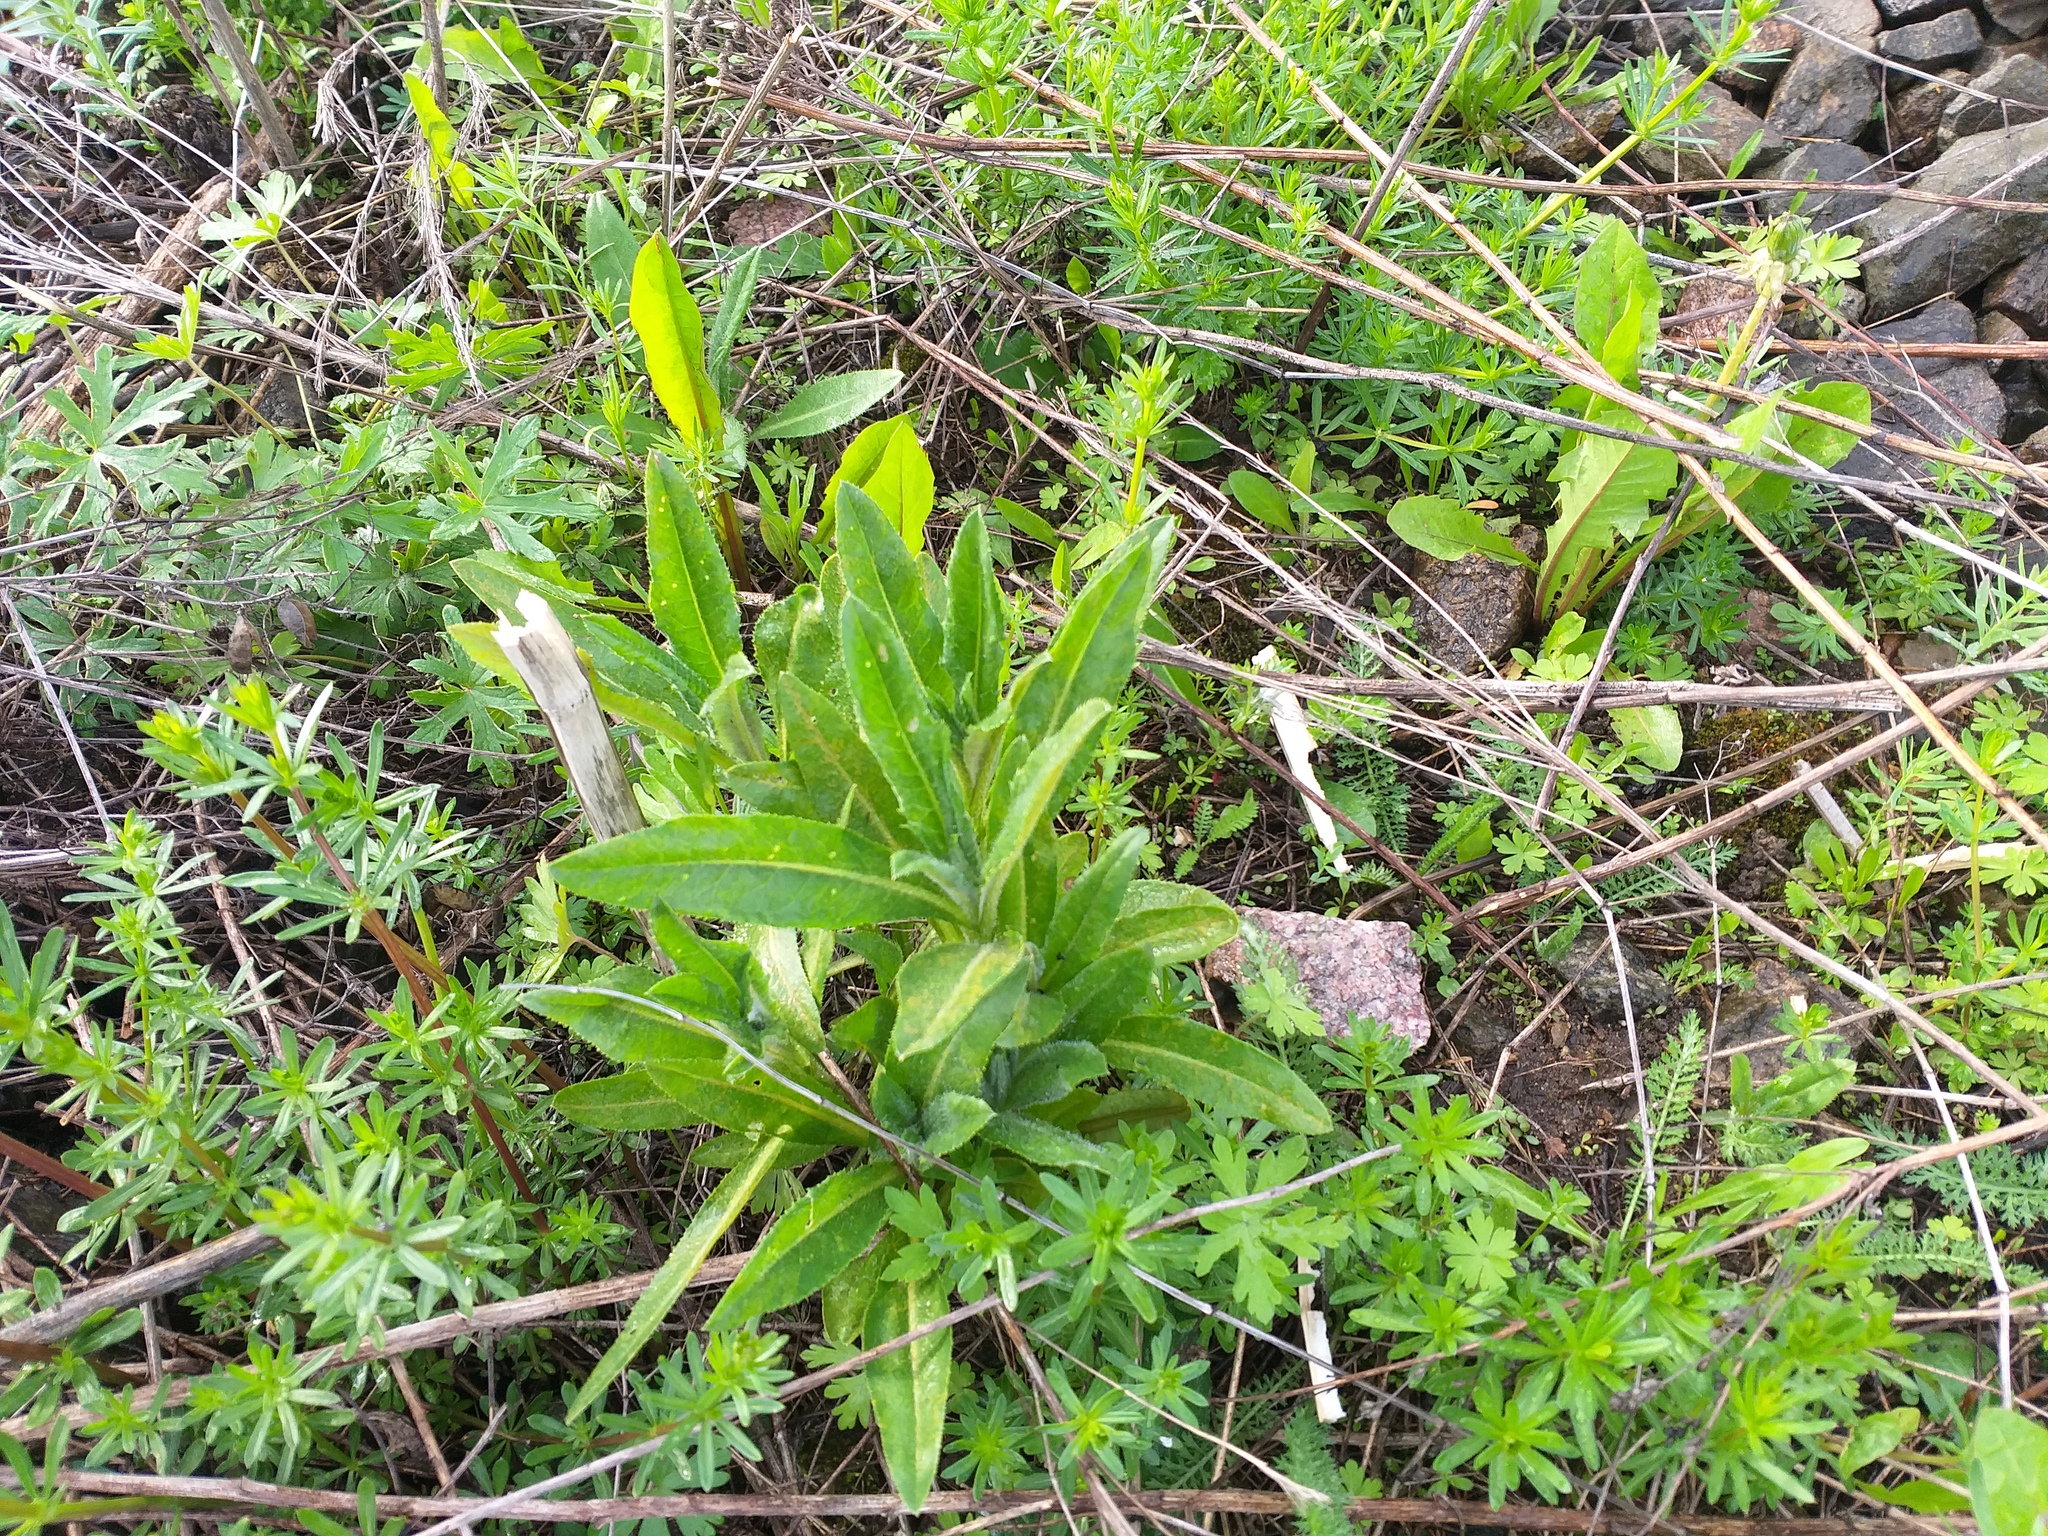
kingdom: Plantae
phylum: Tracheophyta
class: Magnoliopsida
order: Asterales
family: Asteraceae
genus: Cirsium
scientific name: Cirsium arvense
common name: Creeping thistle
